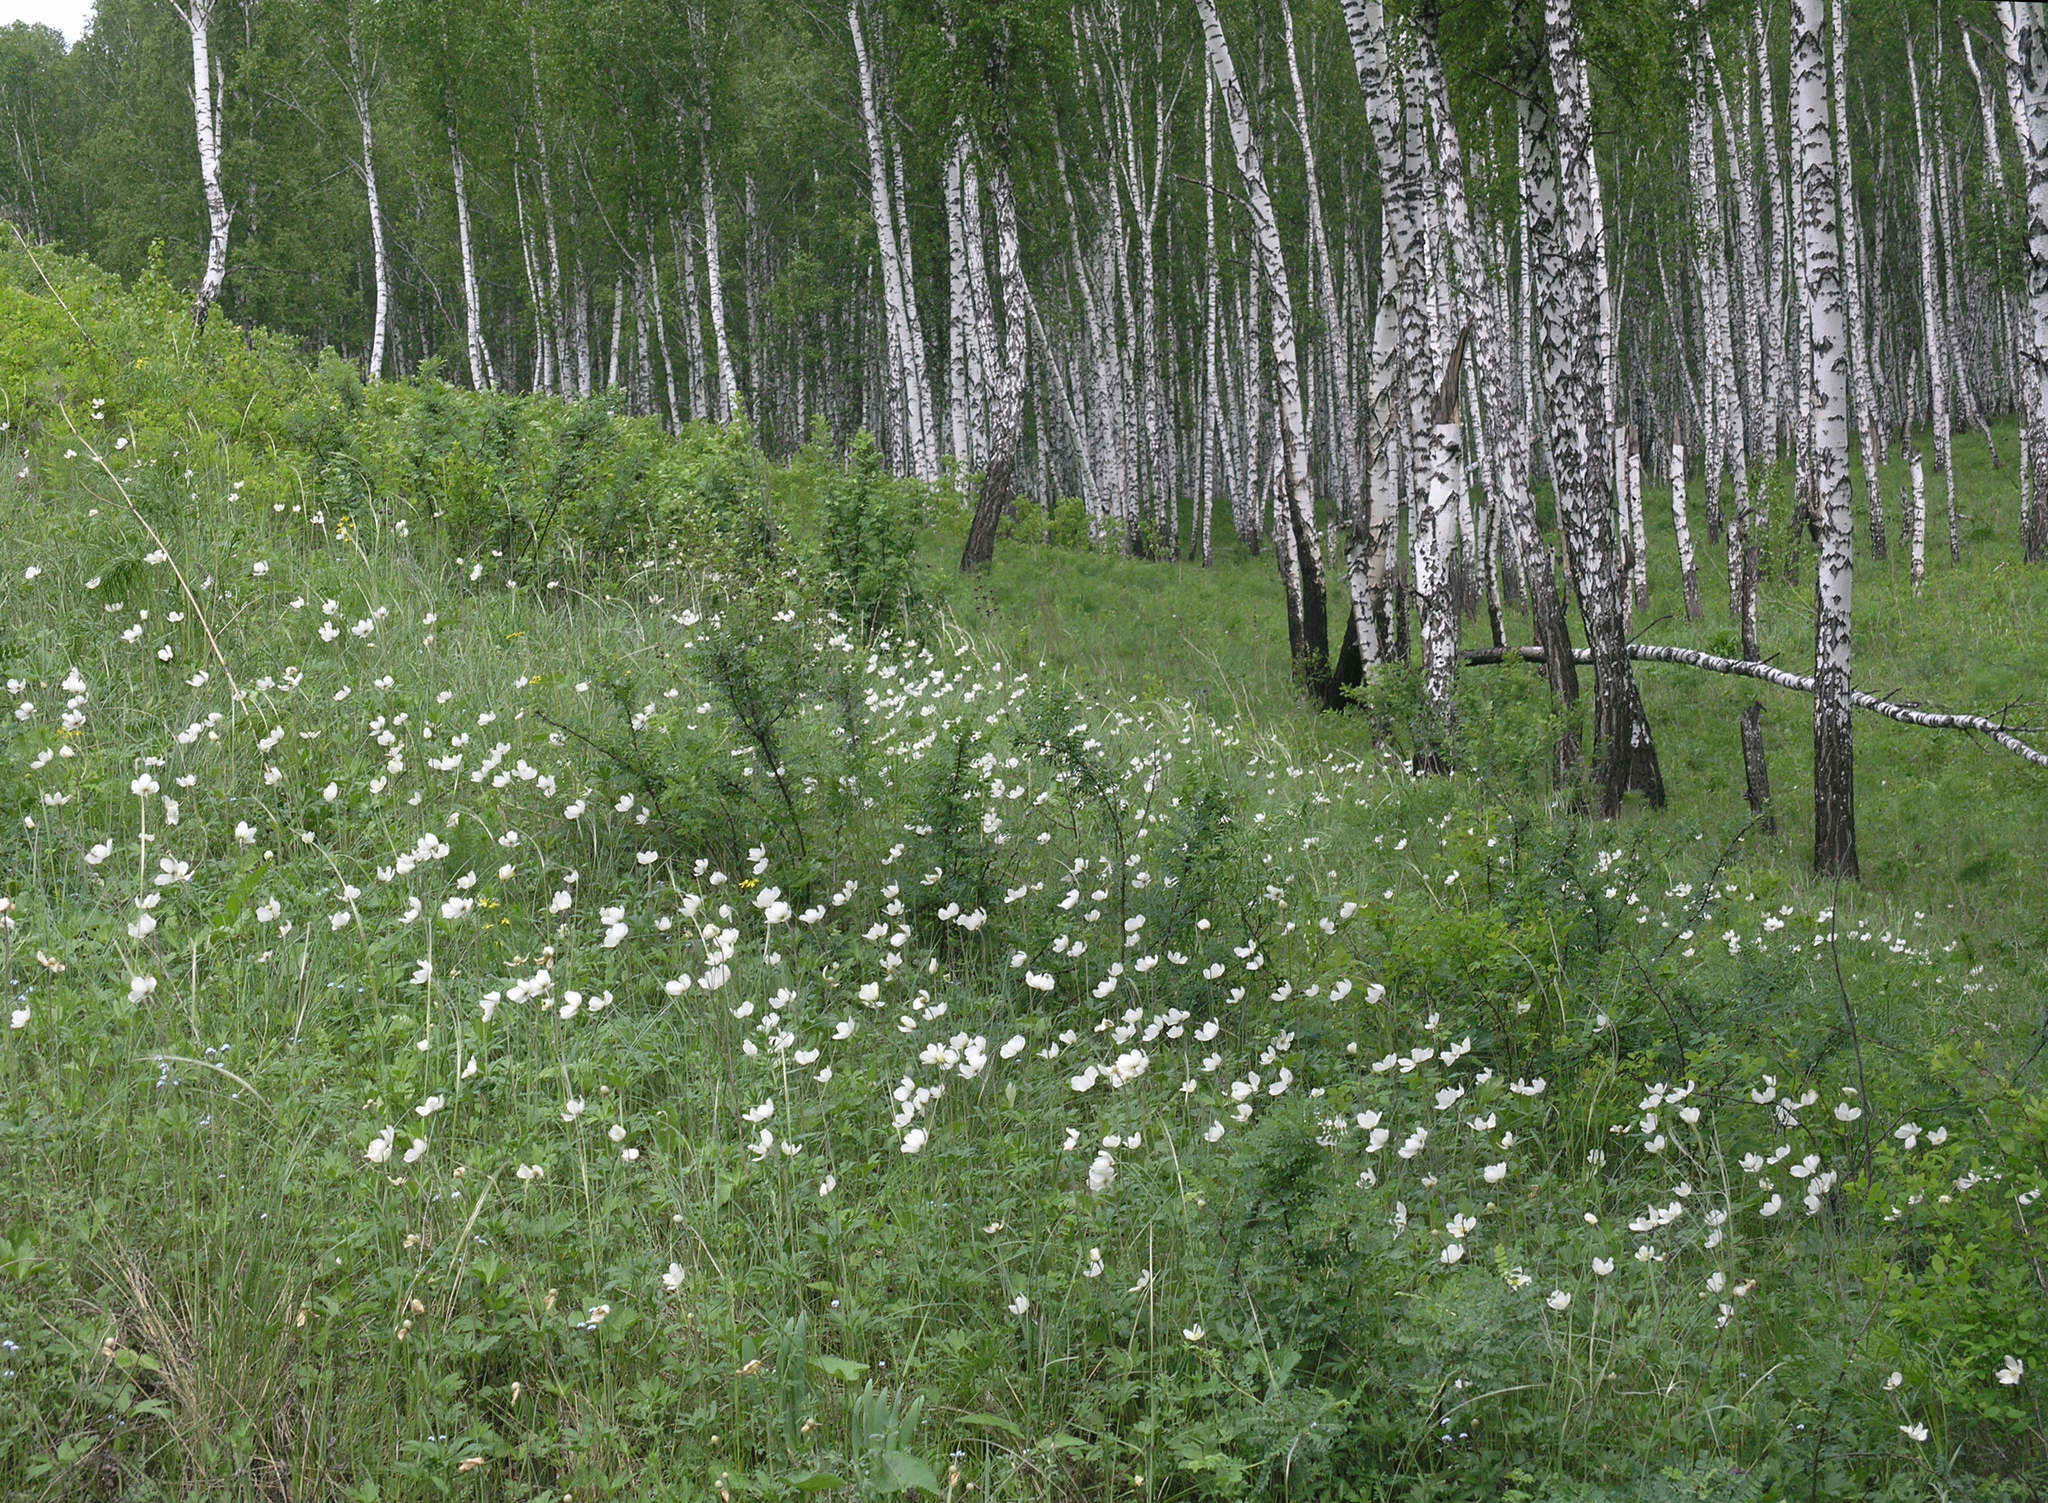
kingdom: Plantae
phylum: Tracheophyta
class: Magnoliopsida
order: Ranunculales
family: Ranunculaceae
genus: Anemone
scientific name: Anemone sylvestris
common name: Snowdrop anemone
